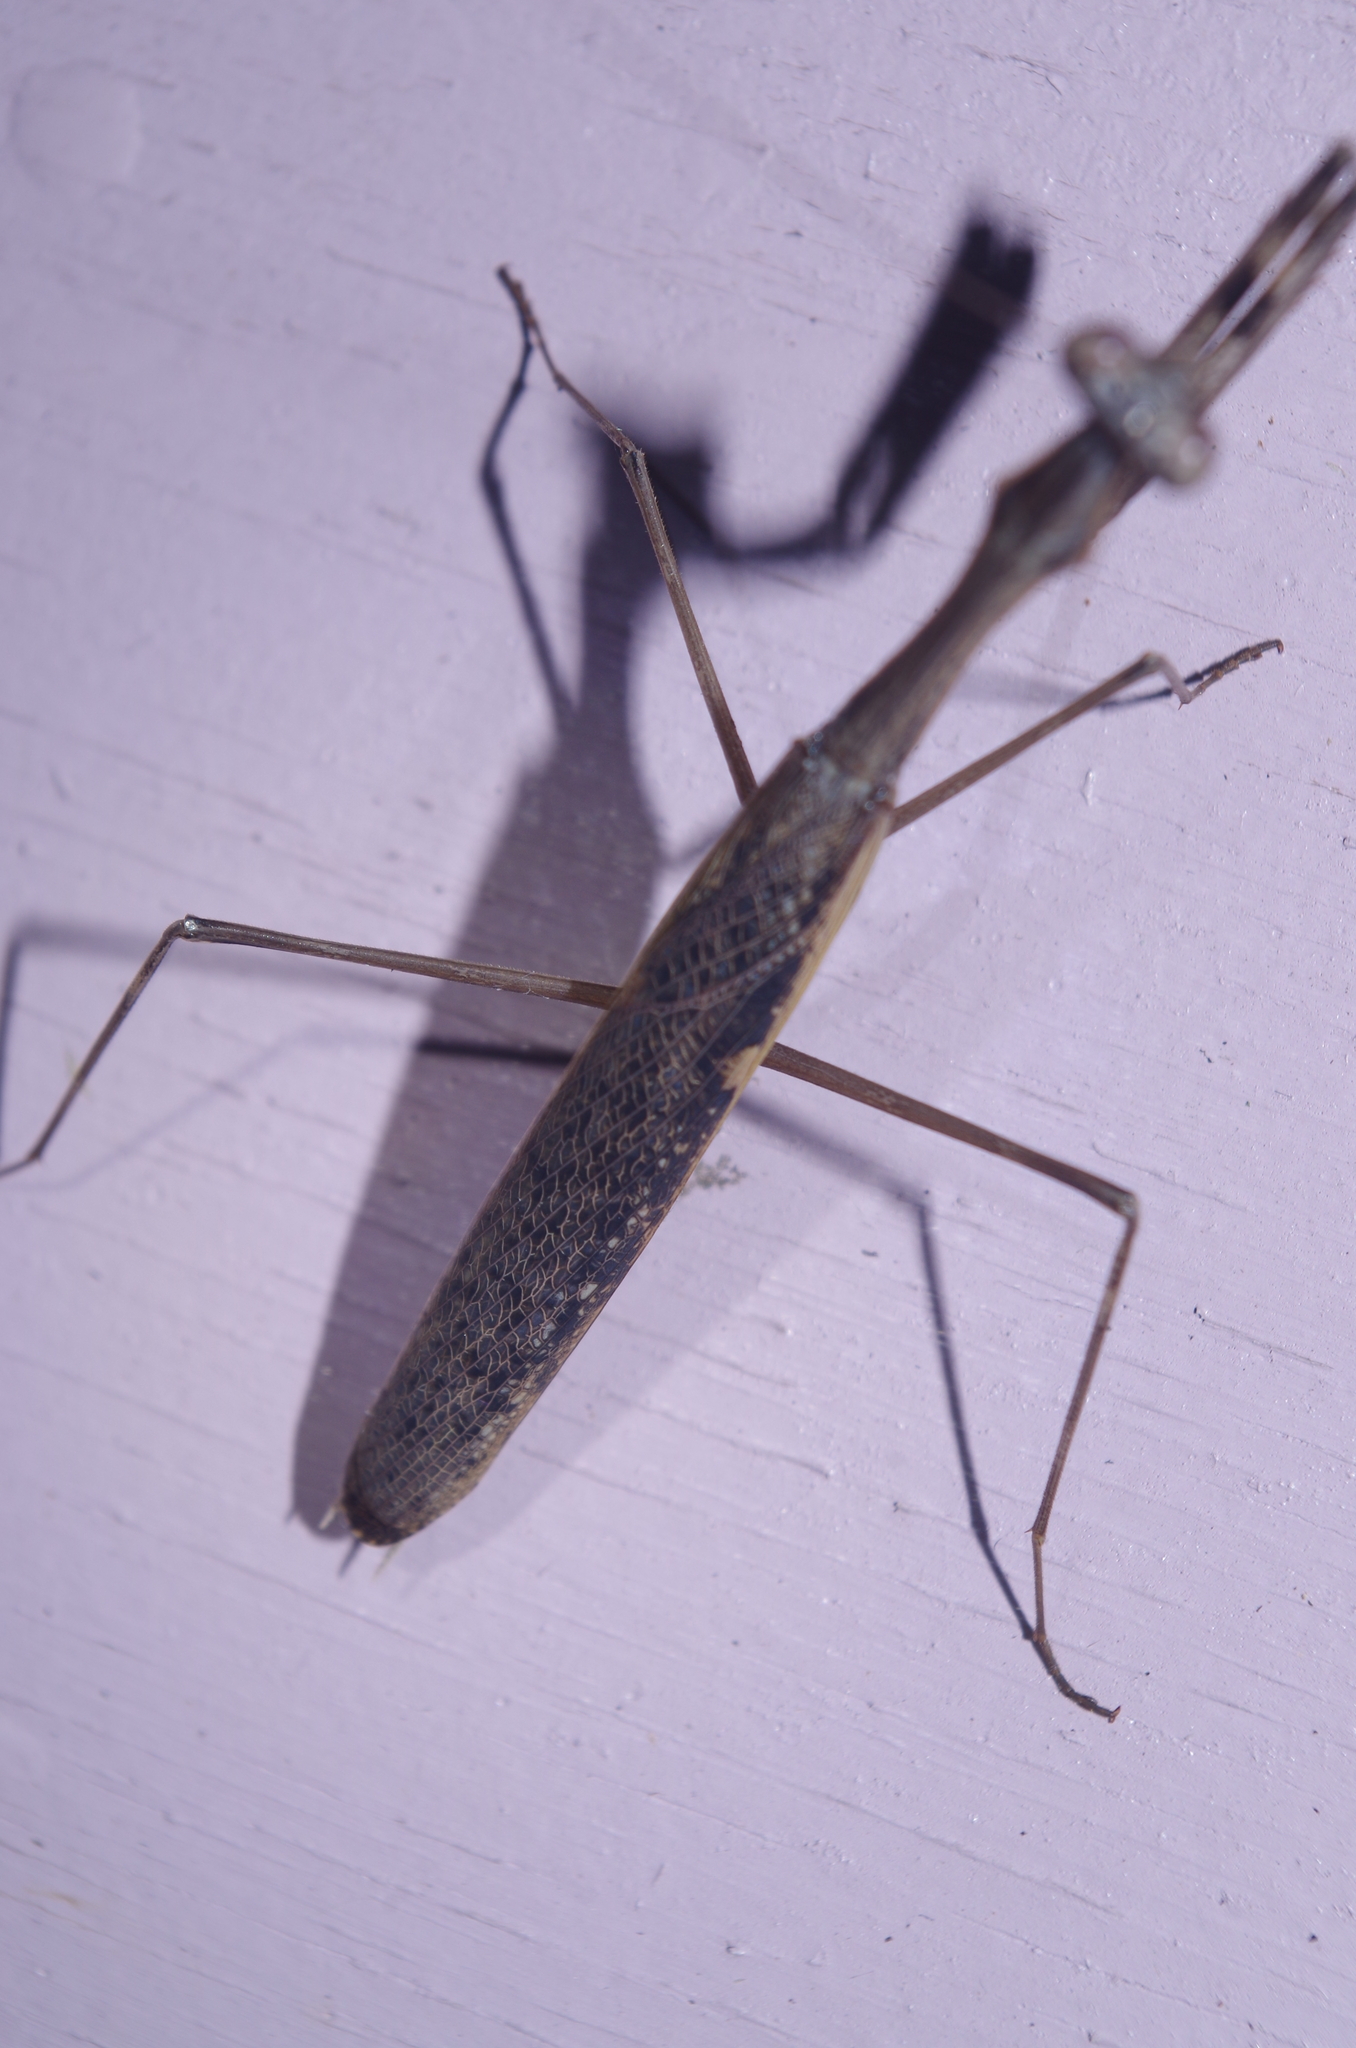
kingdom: Animalia
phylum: Arthropoda
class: Insecta
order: Mantodea
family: Mantidae
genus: Statilia
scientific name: Statilia nemoralis
